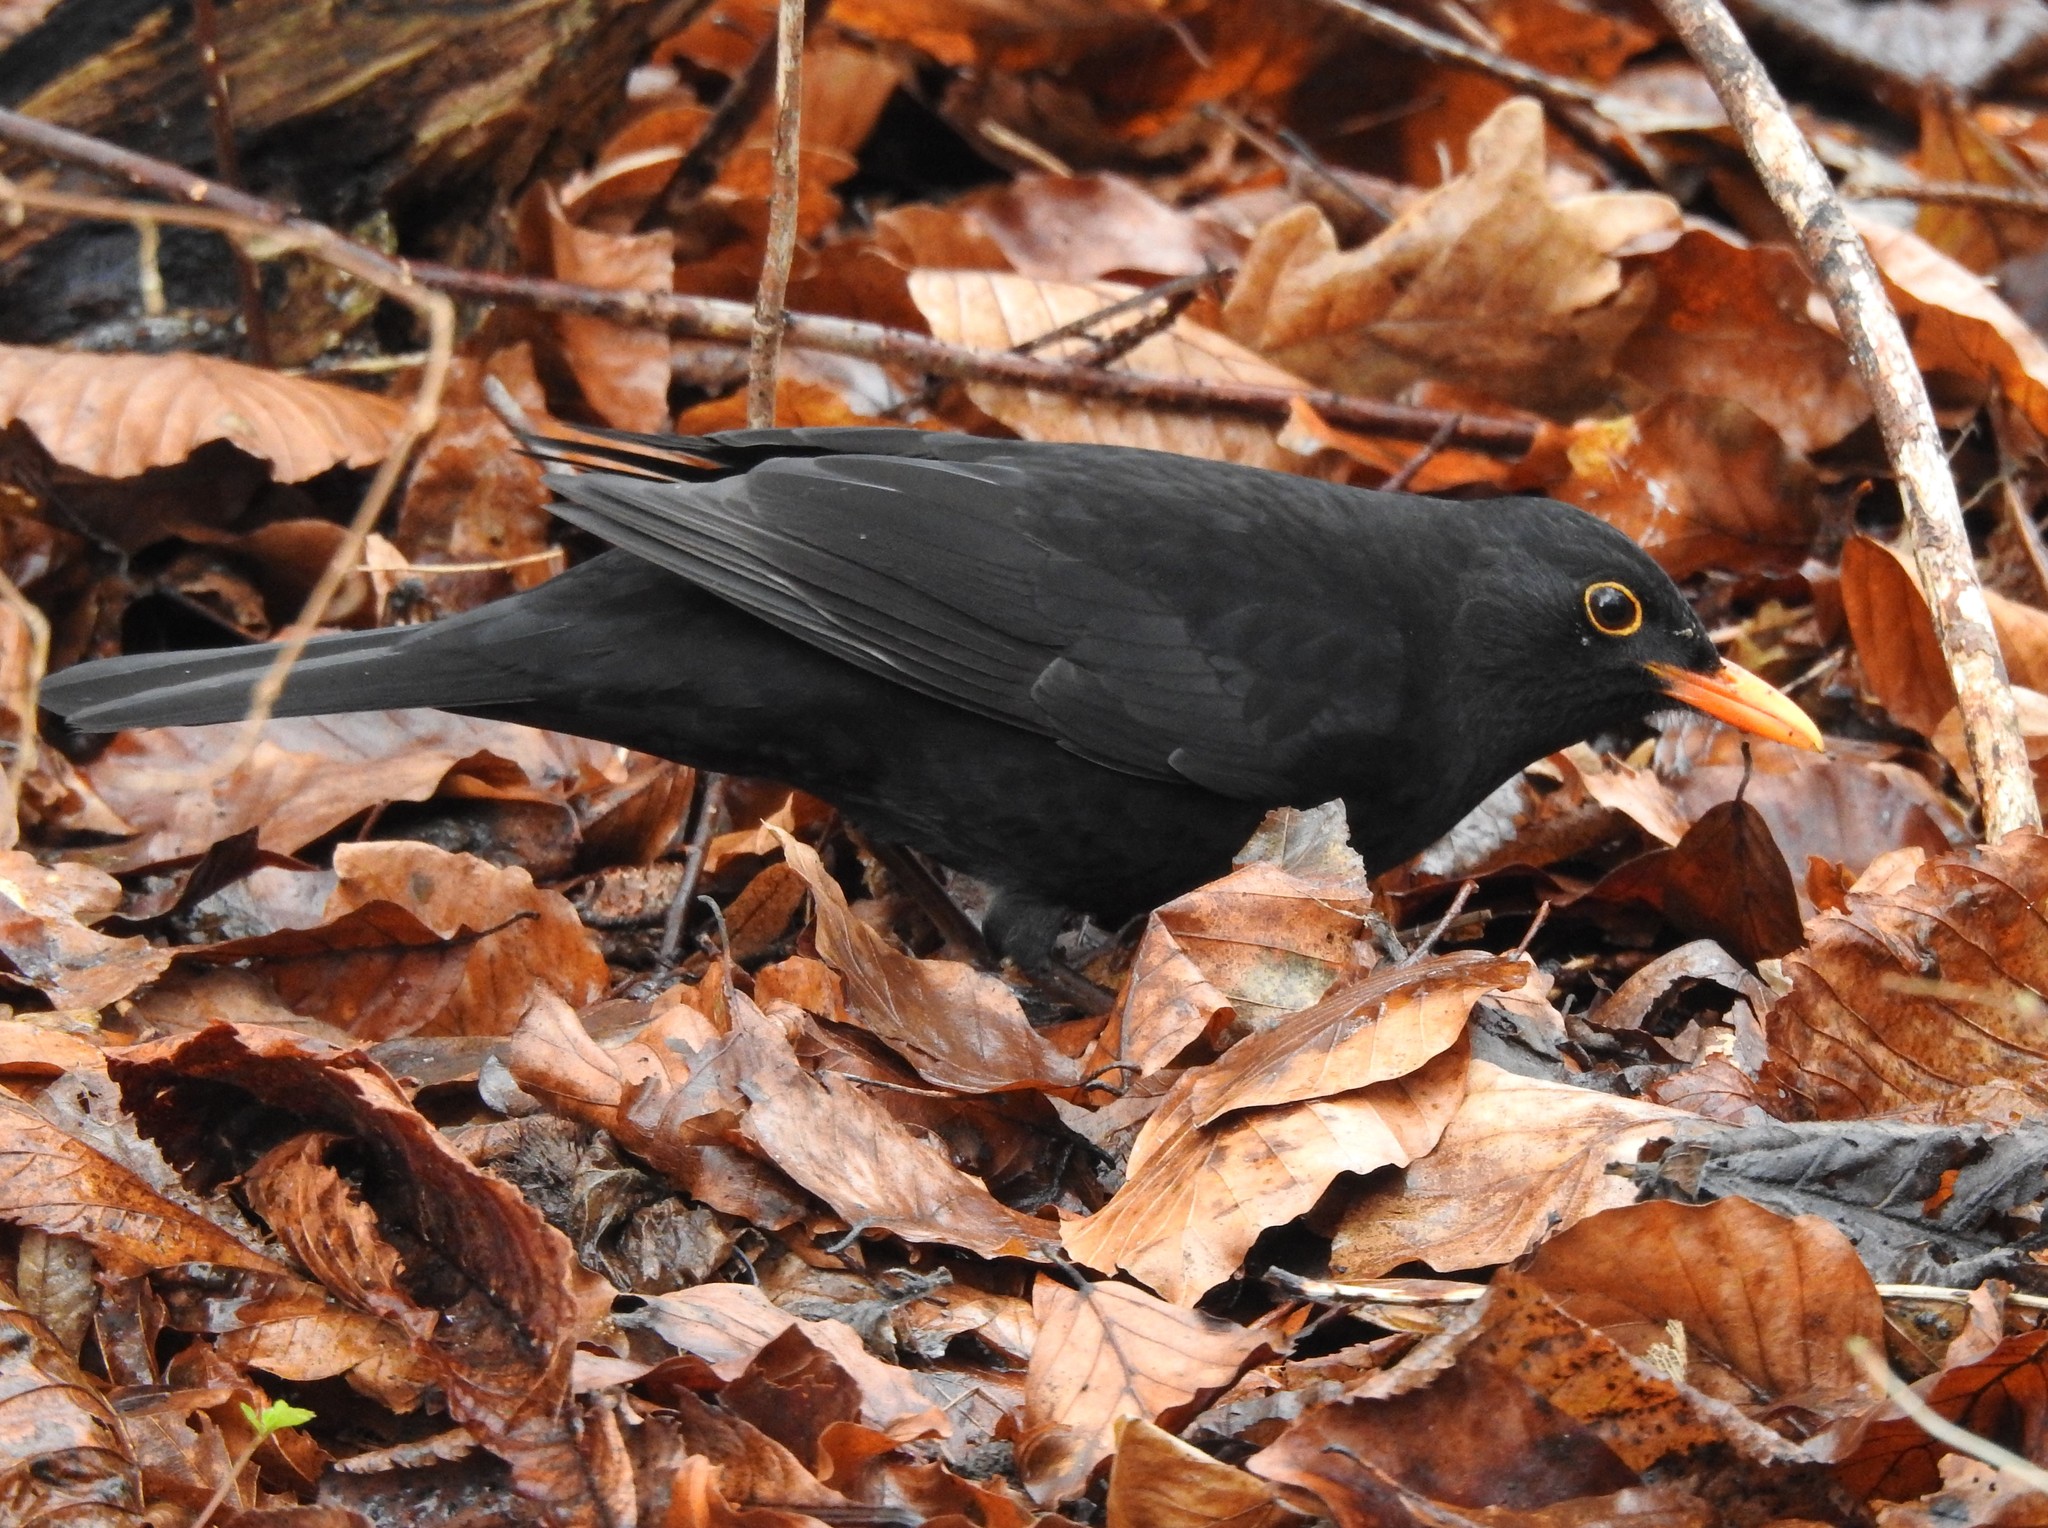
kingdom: Animalia
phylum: Chordata
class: Aves
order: Passeriformes
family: Turdidae
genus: Turdus
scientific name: Turdus merula
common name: Common blackbird
